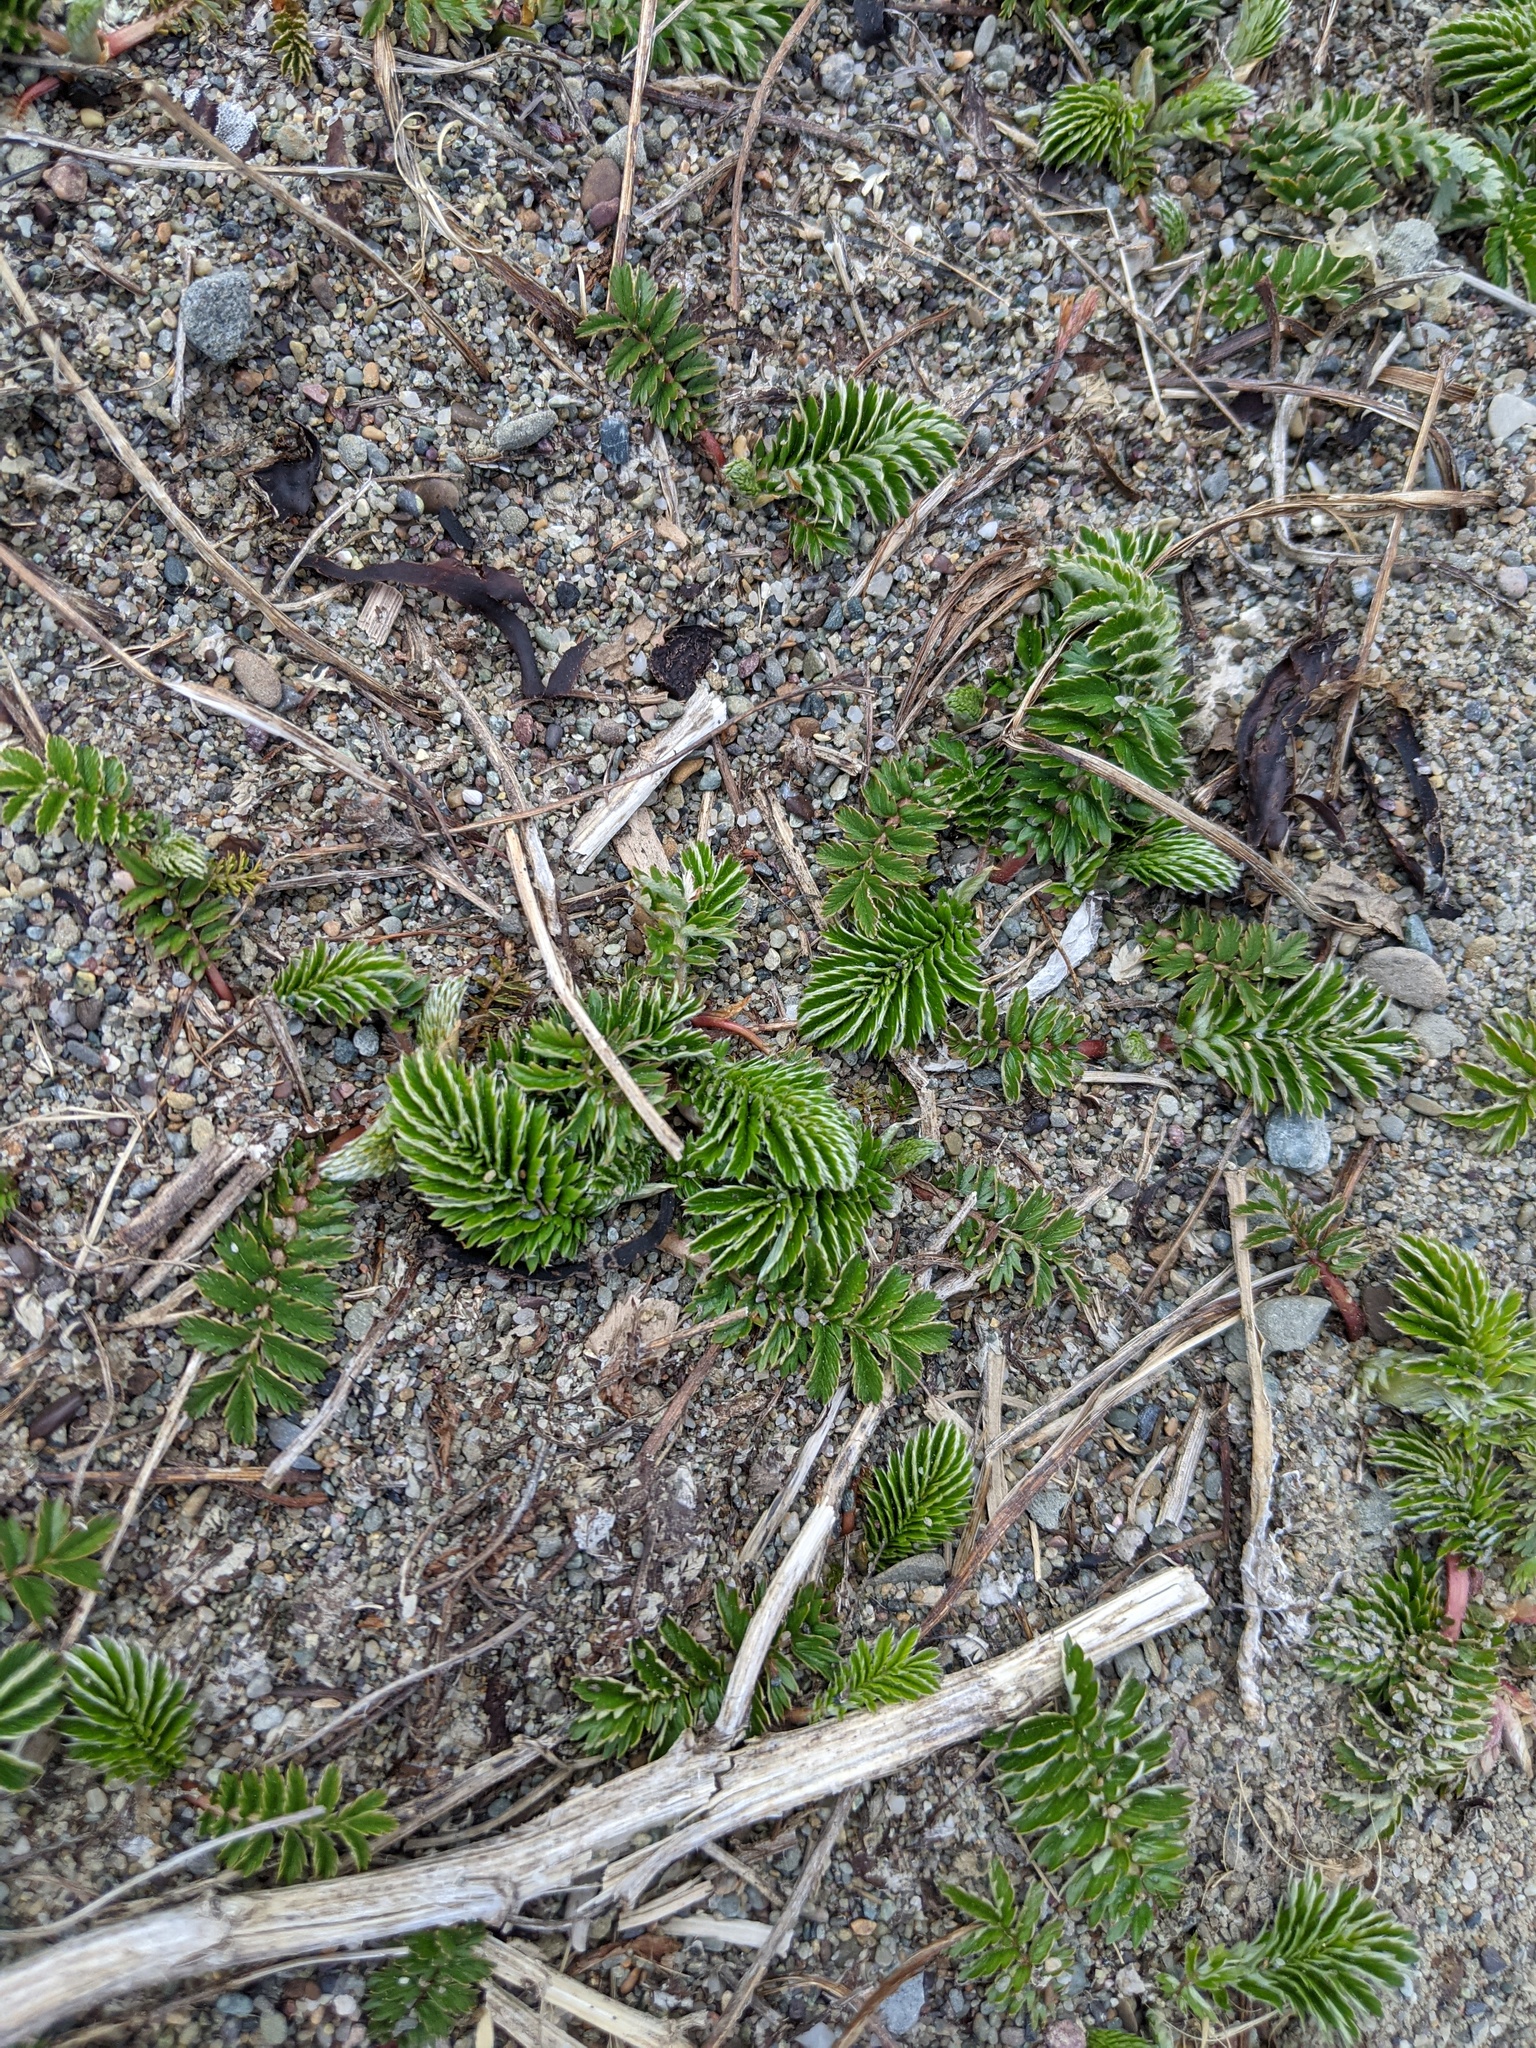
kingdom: Plantae
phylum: Tracheophyta
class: Magnoliopsida
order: Rosales
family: Rosaceae
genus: Argentina
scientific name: Argentina anserina
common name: Common silverweed
